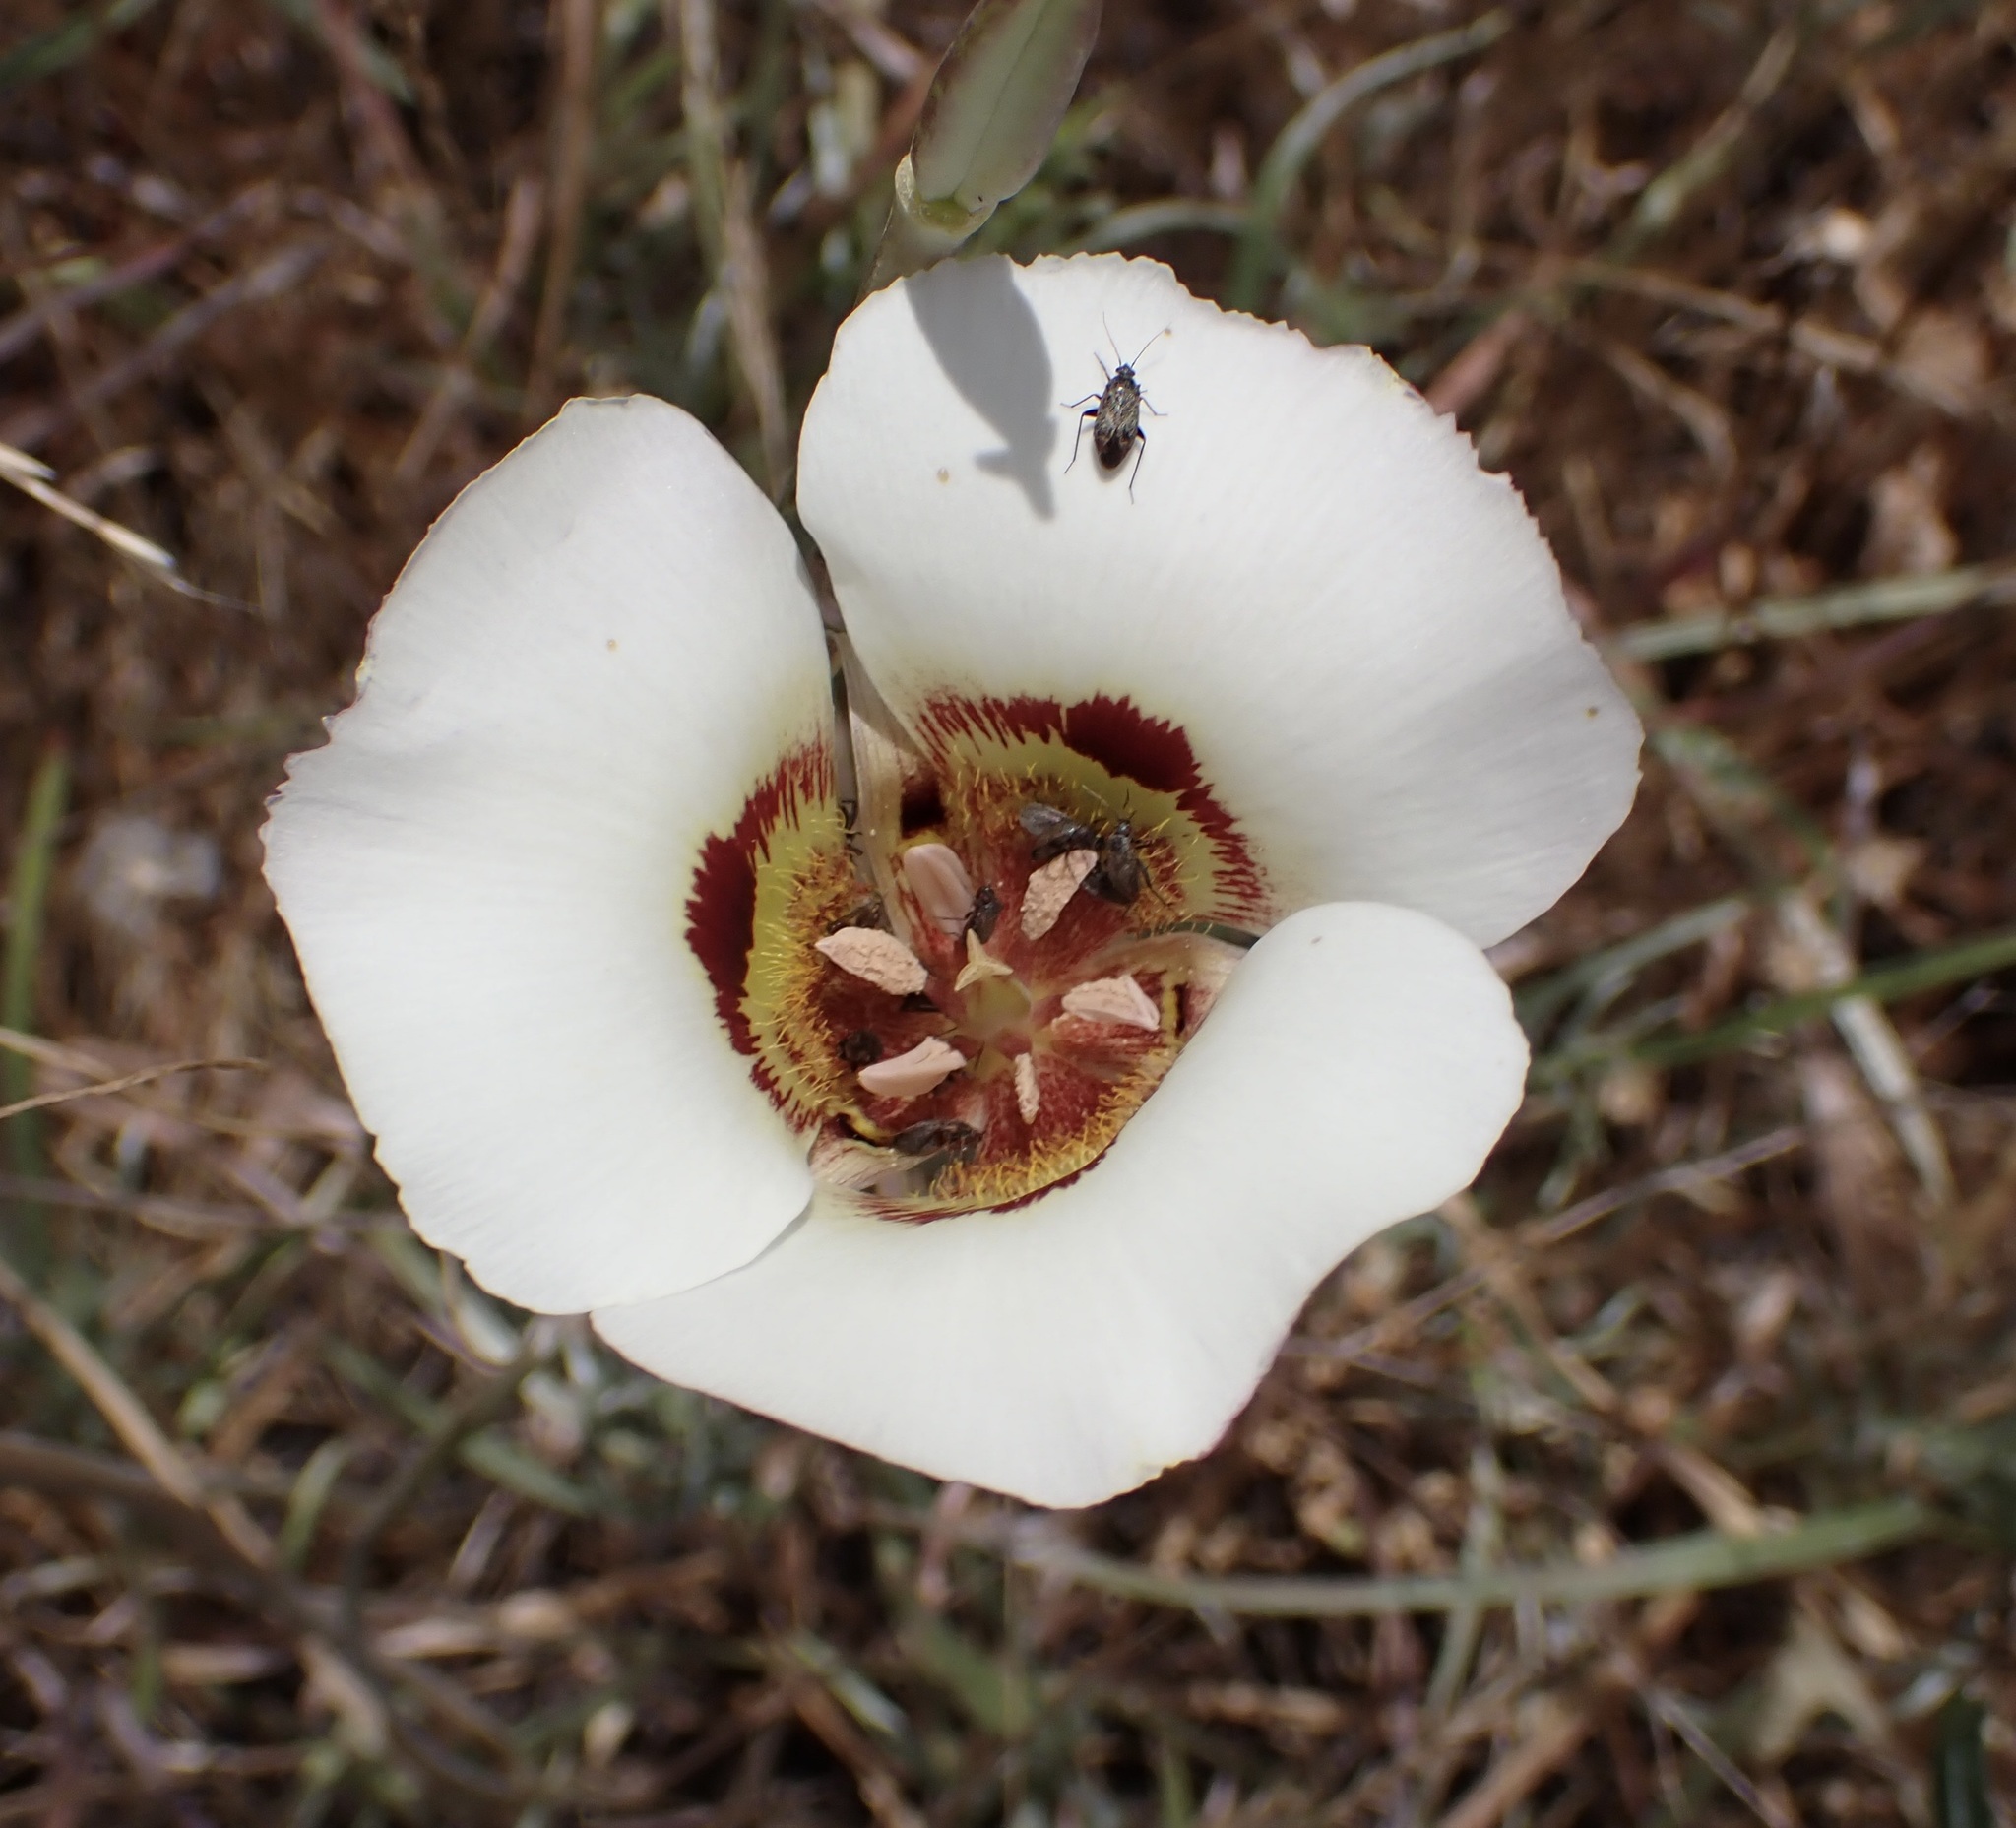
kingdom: Plantae
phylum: Tracheophyta
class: Liliopsida
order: Liliales
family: Liliaceae
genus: Calochortus
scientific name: Calochortus vestae
